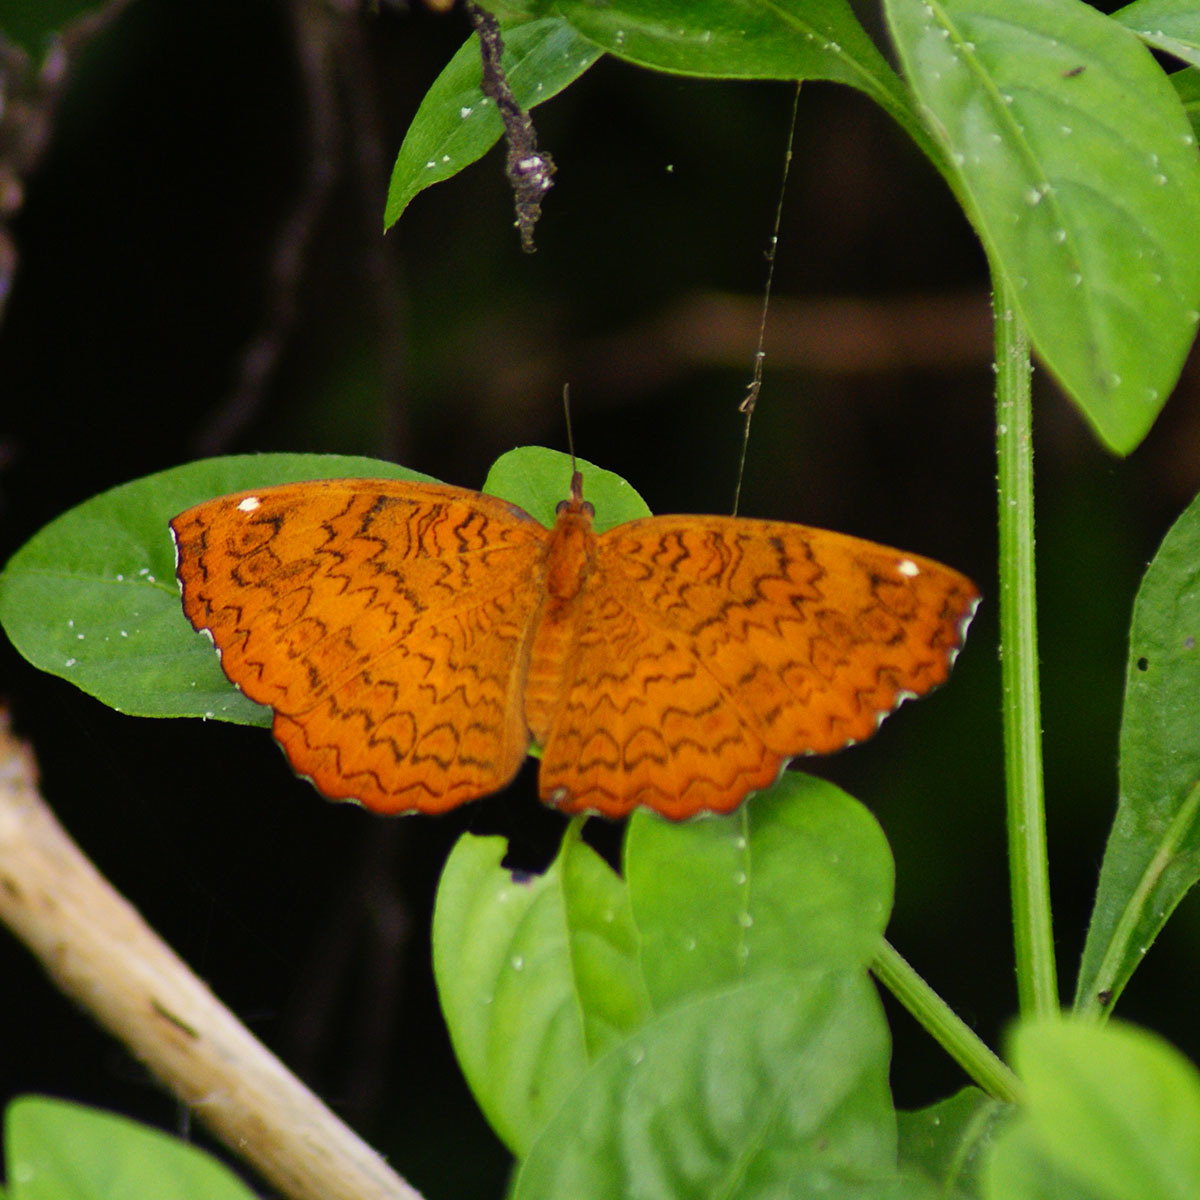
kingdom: Animalia
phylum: Arthropoda
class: Insecta
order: Lepidoptera
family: Nymphalidae
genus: Ariadne
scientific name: Ariadne merione
